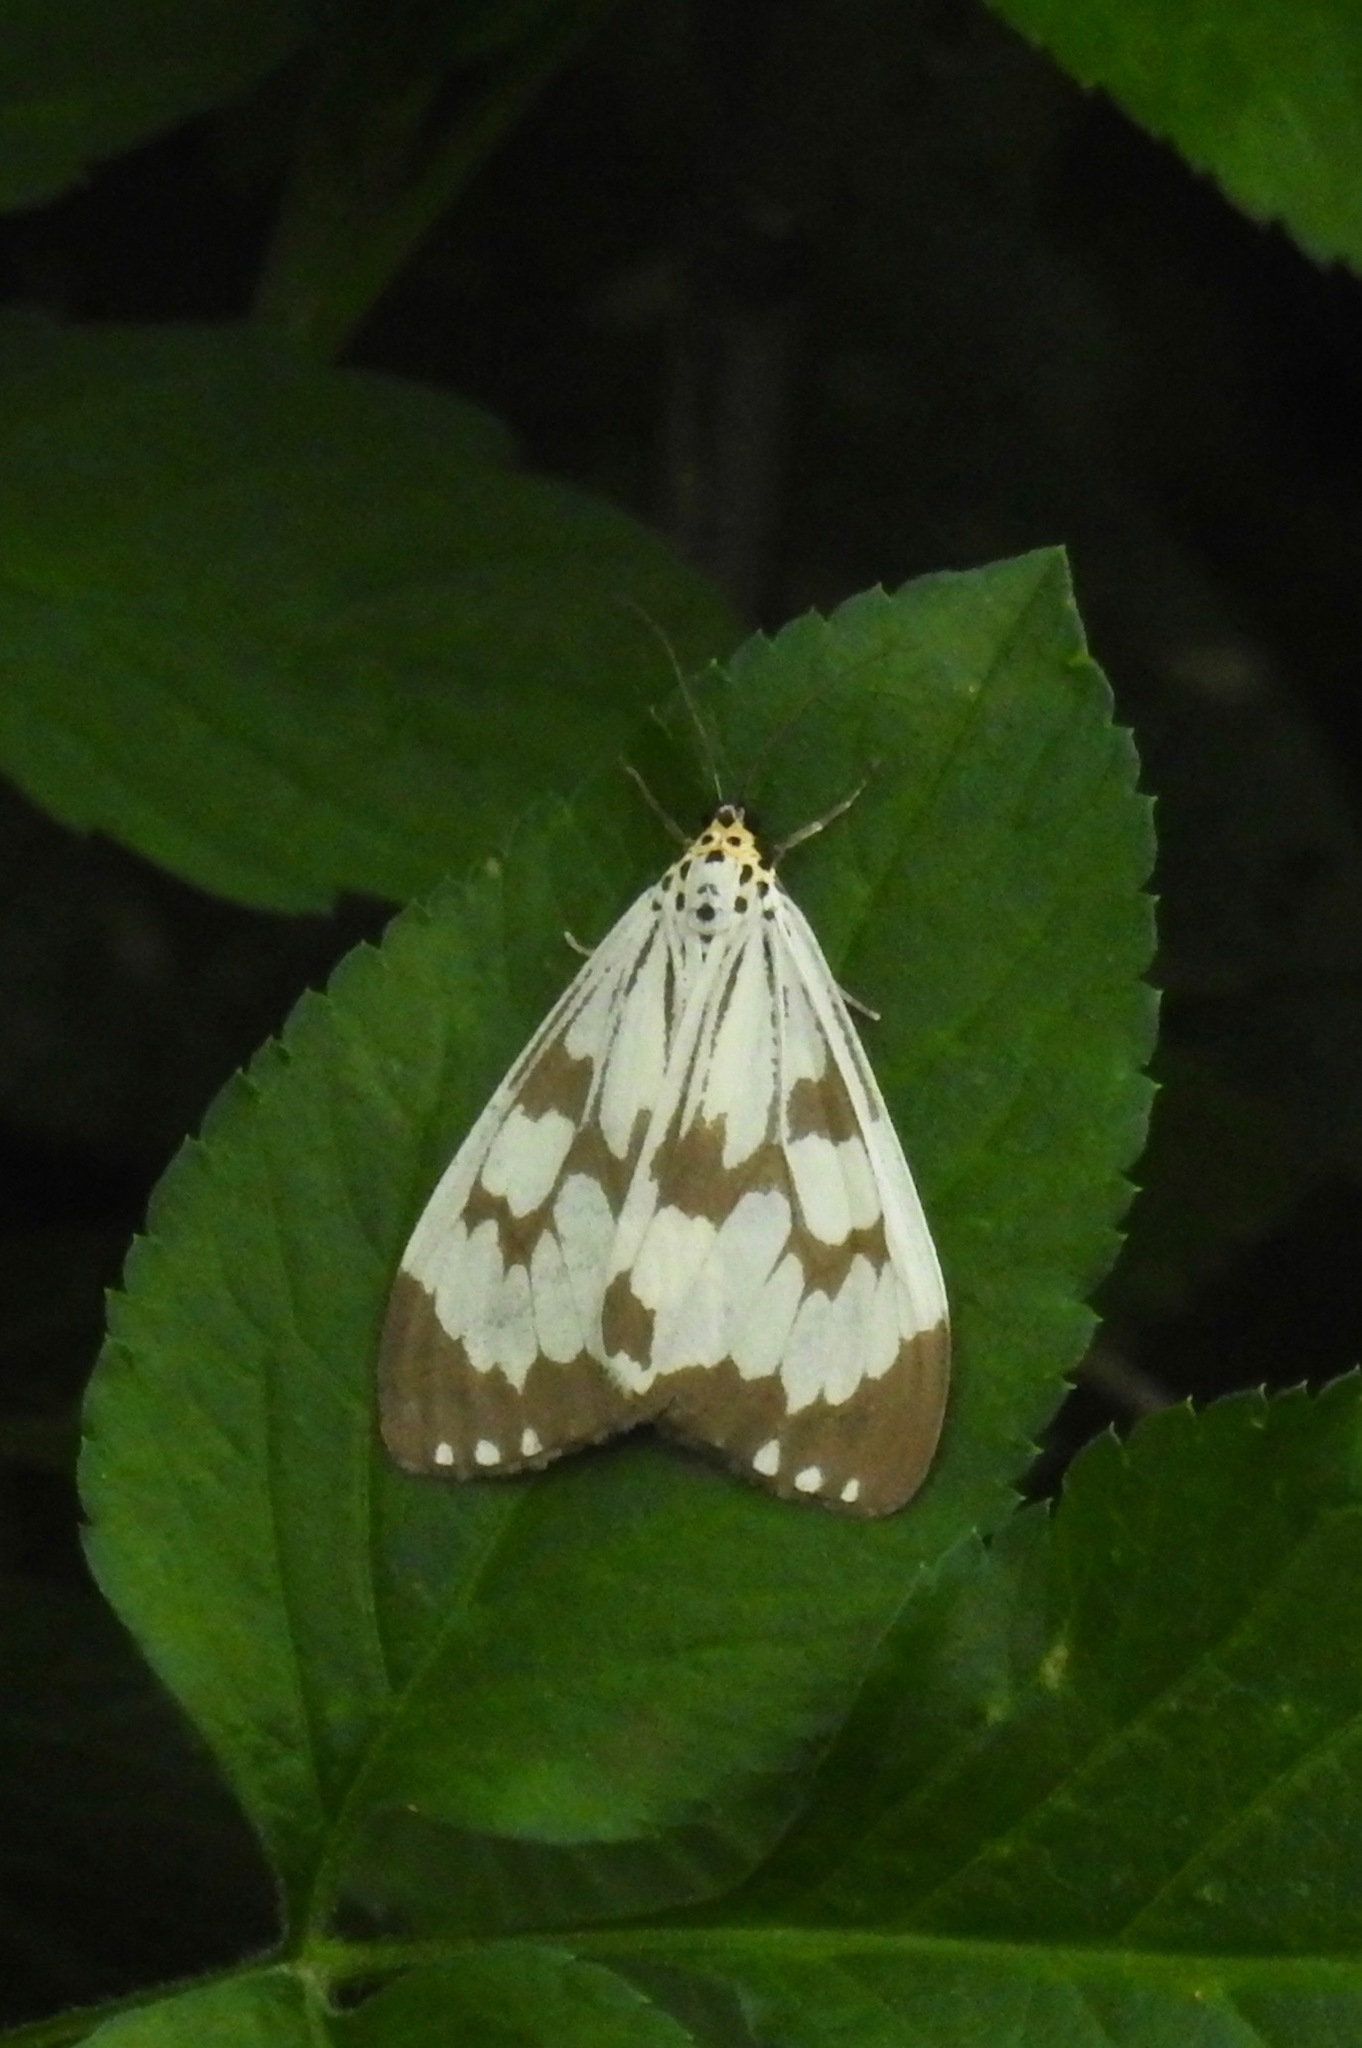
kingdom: Animalia
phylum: Arthropoda
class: Insecta
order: Lepidoptera
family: Erebidae
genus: Nyctemera
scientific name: Nyctemera adversata
